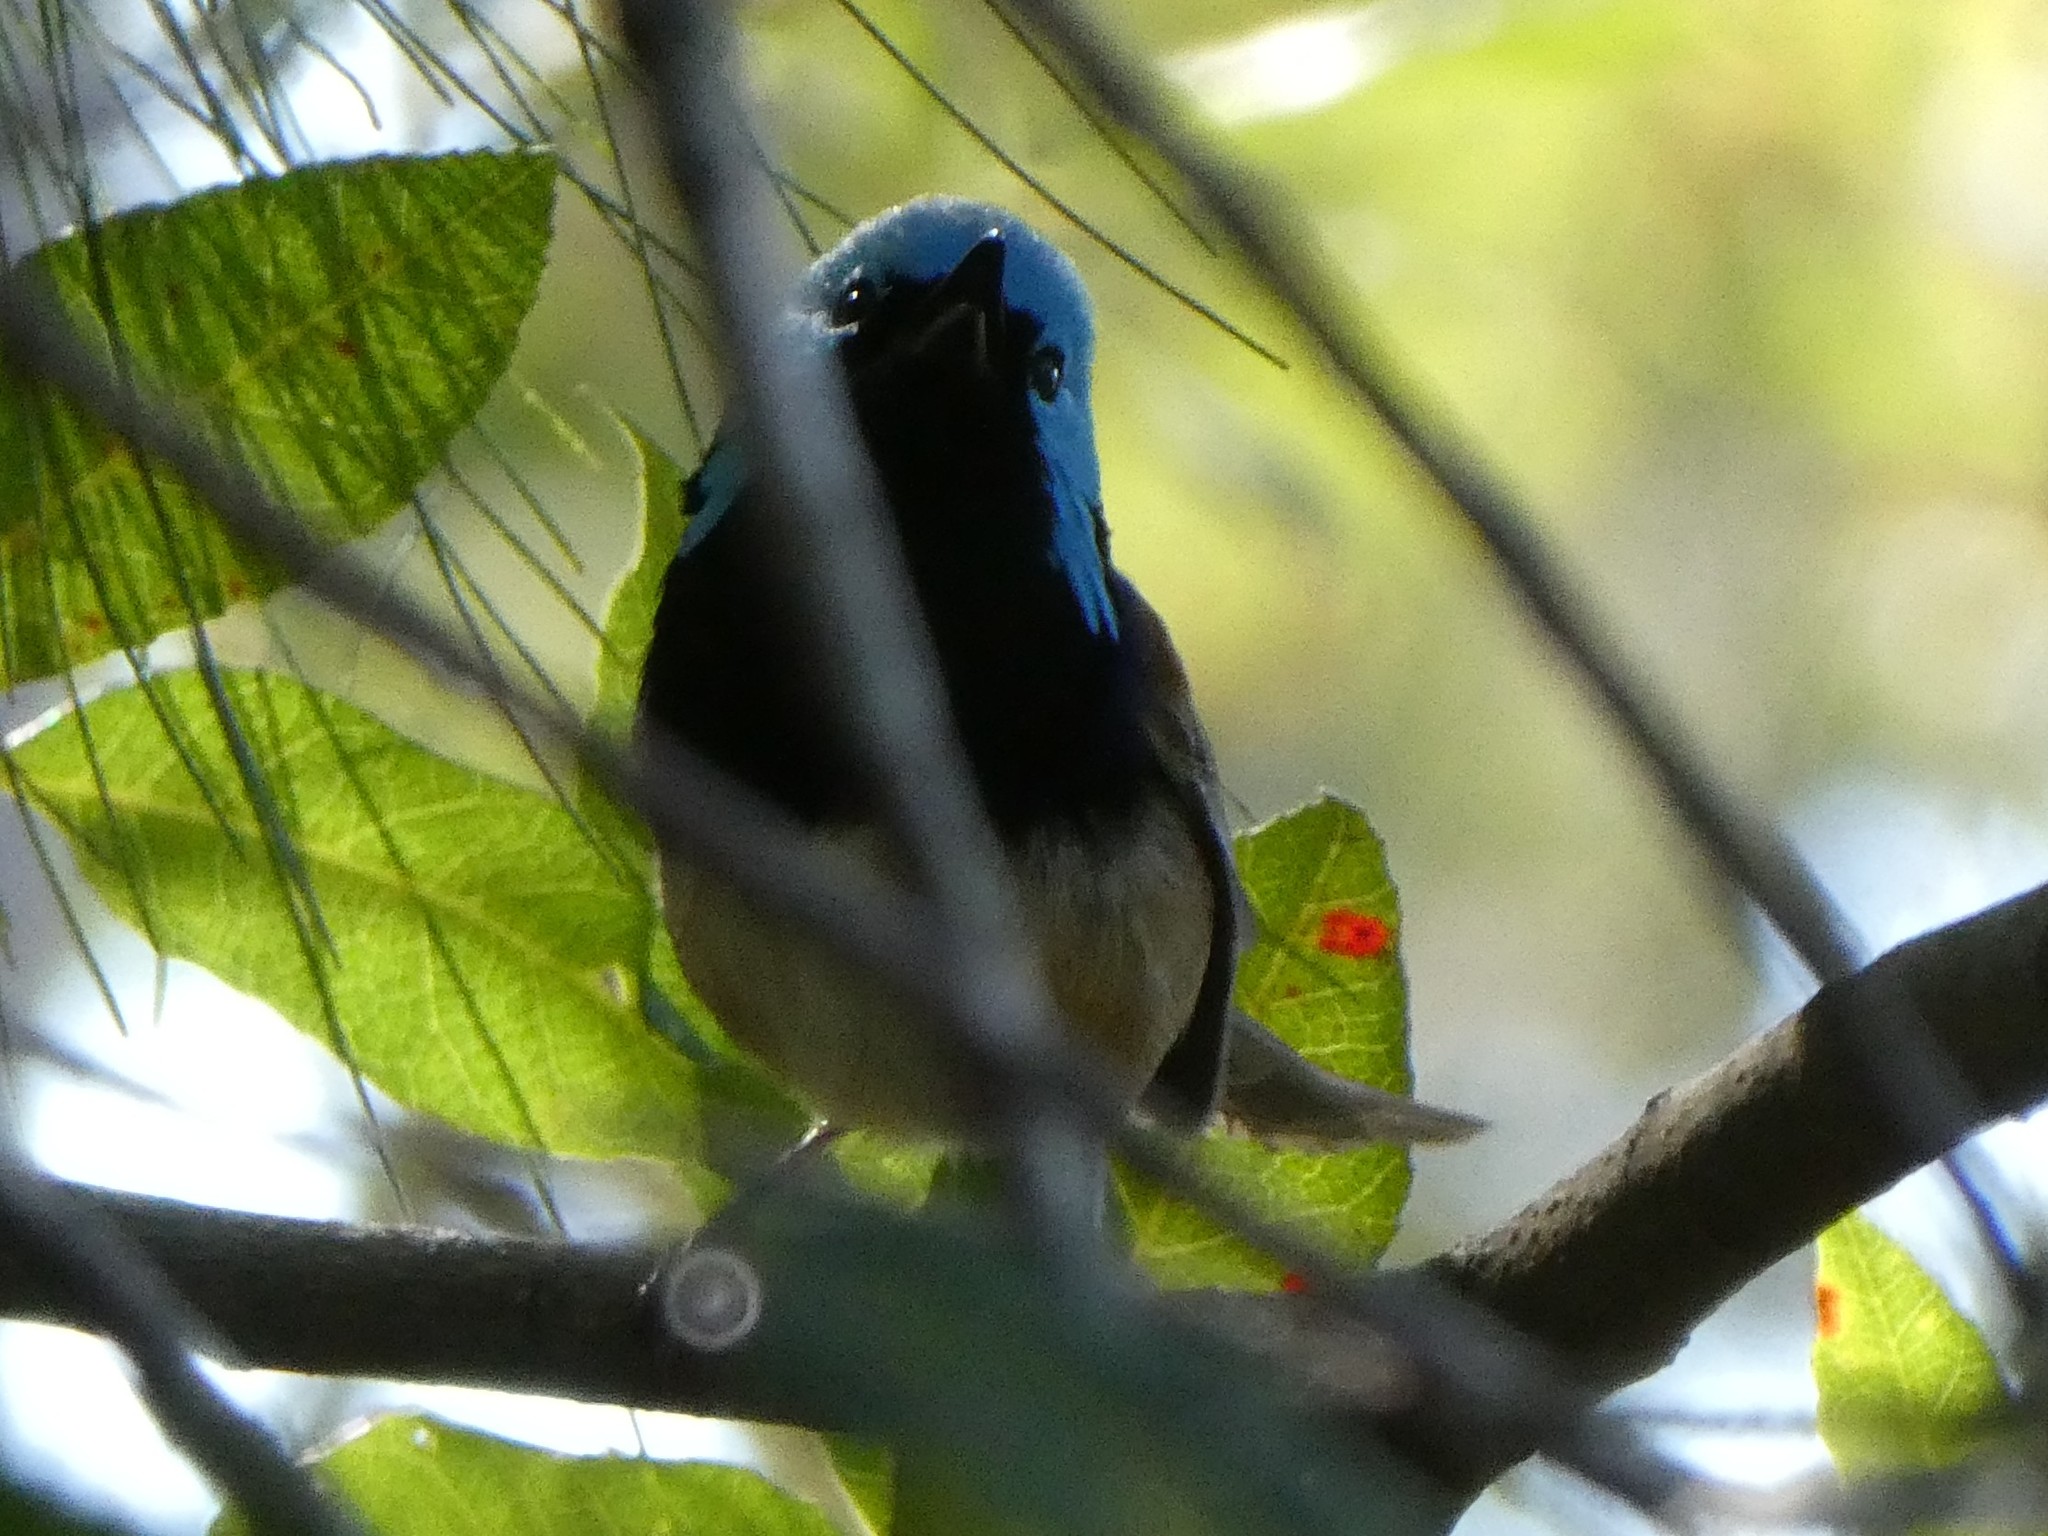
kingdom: Animalia
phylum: Chordata
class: Aves
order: Passeriformes
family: Maluridae
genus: Malurus
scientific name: Malurus lamberti
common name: Variegated fairywren
